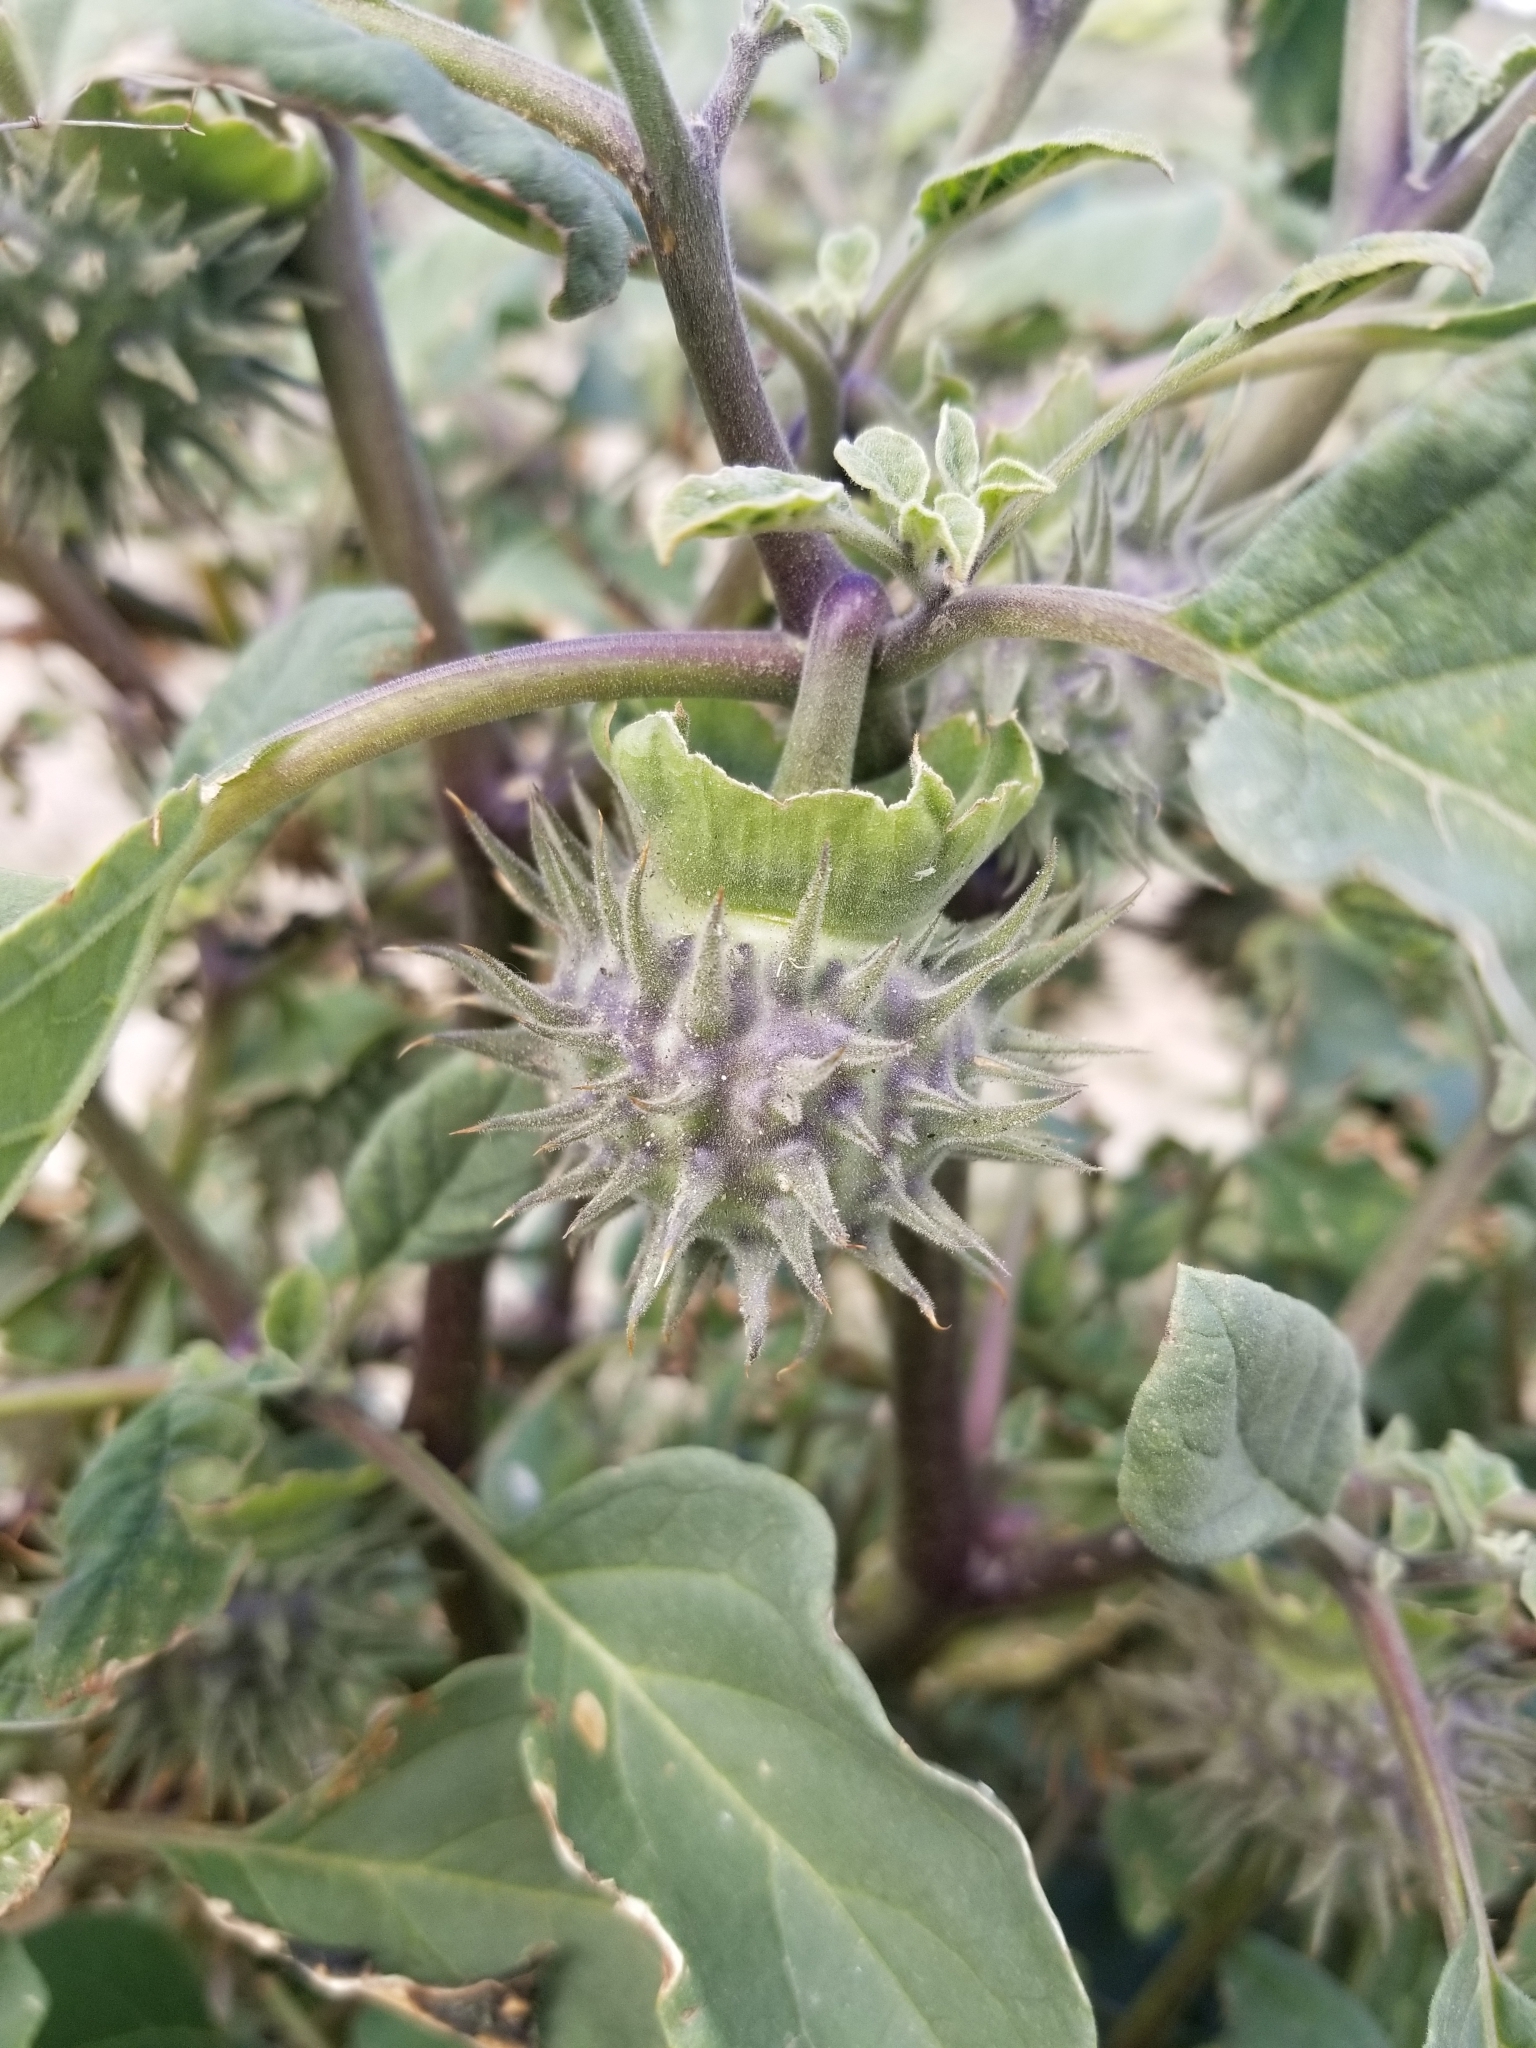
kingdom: Plantae
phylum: Tracheophyta
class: Magnoliopsida
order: Solanales
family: Solanaceae
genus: Datura
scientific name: Datura discolor
